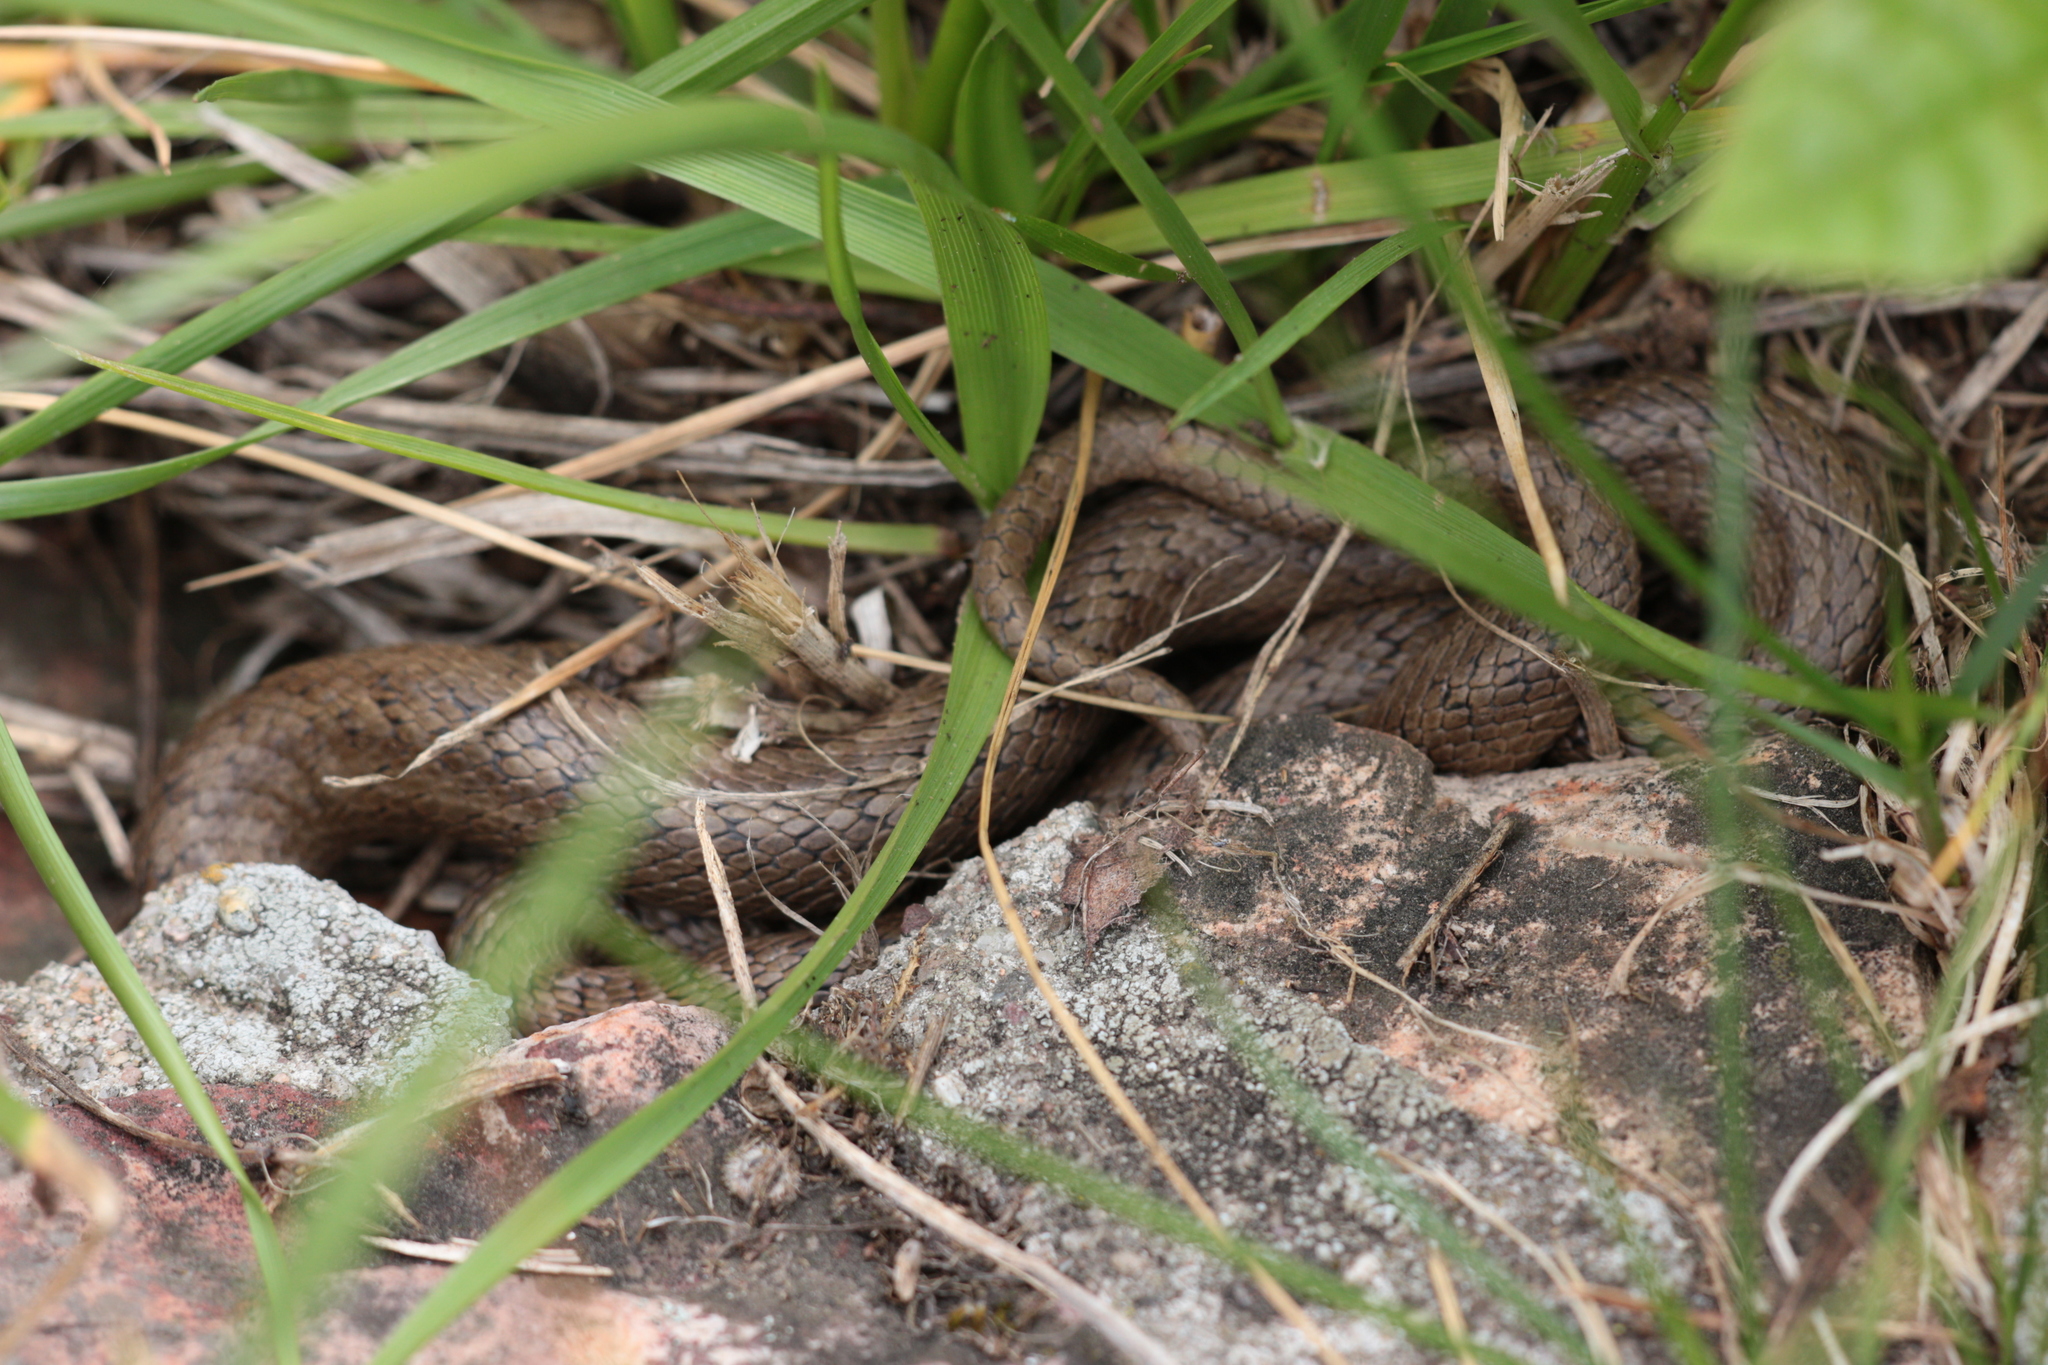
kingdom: Animalia
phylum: Chordata
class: Squamata
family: Colubridae
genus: Coronella
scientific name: Coronella austriaca
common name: Smooth snake
